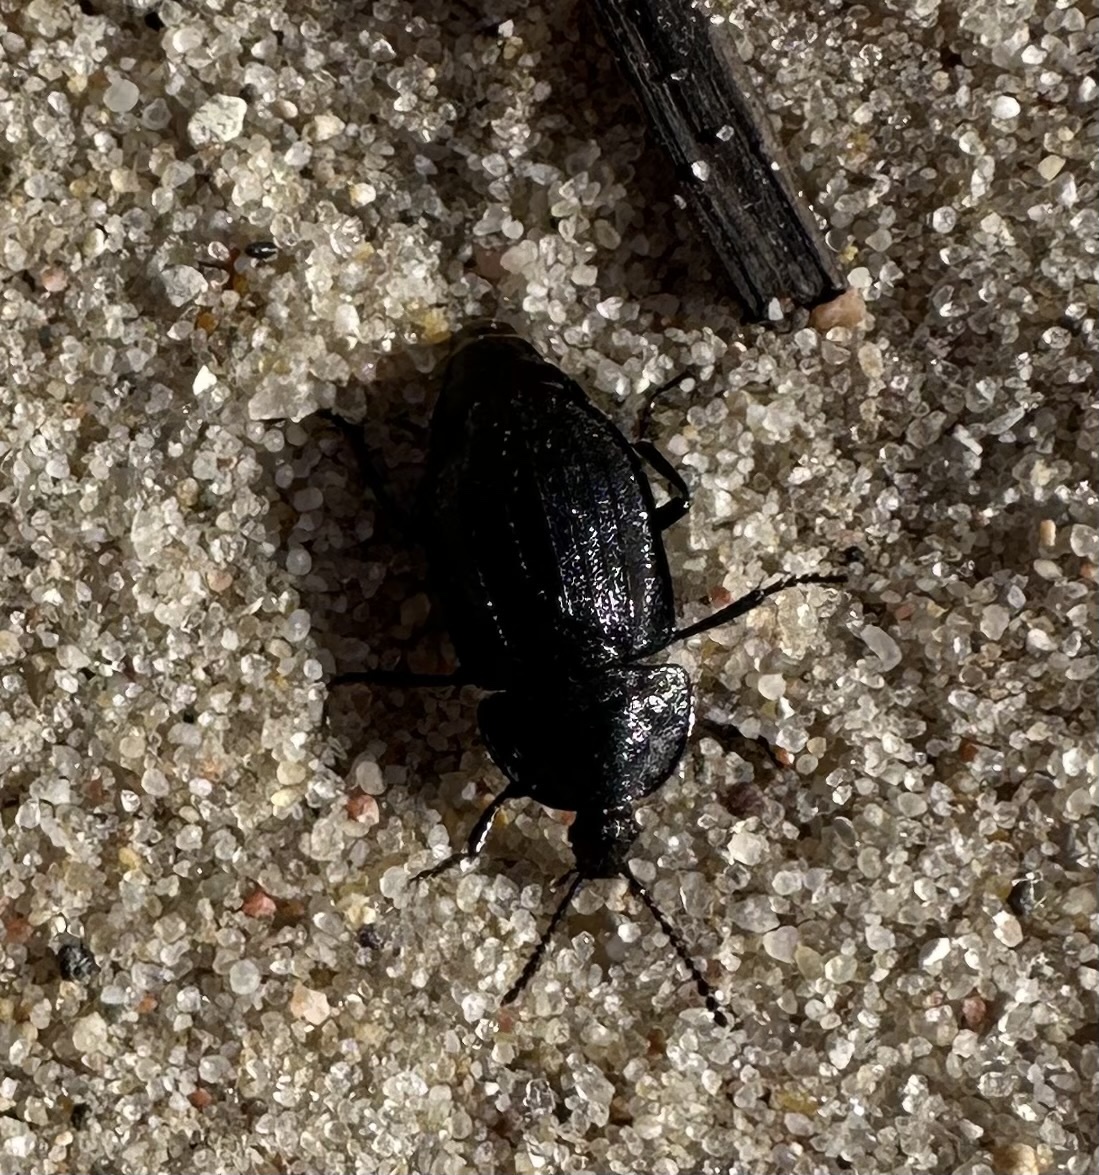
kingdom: Animalia
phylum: Arthropoda
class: Insecta
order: Coleoptera
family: Staphylinidae
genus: Silpha
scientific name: Silpha atrata
